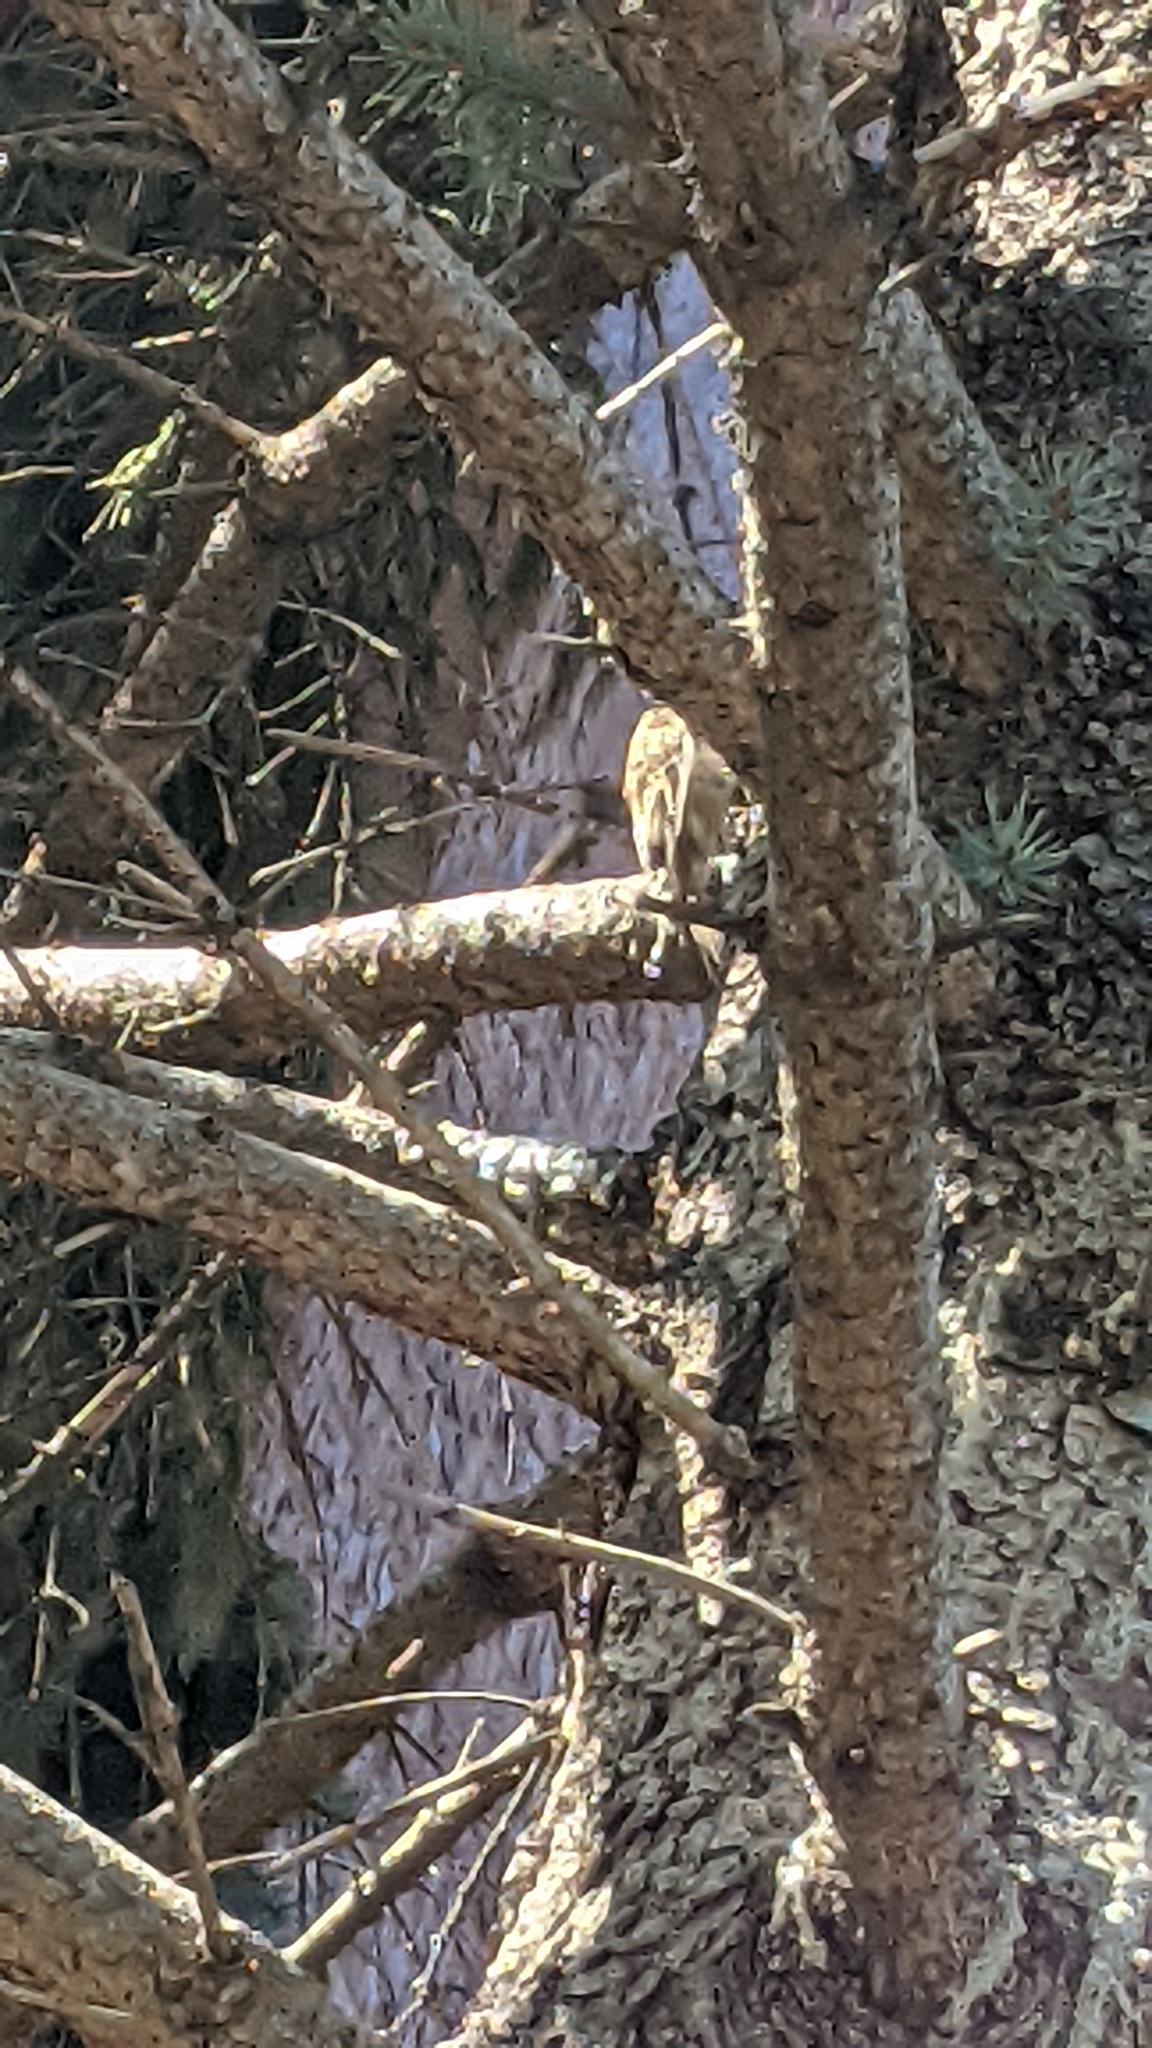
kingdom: Animalia
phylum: Chordata
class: Aves
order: Passeriformes
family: Certhiidae
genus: Certhia
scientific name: Certhia americana
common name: Brown creeper
